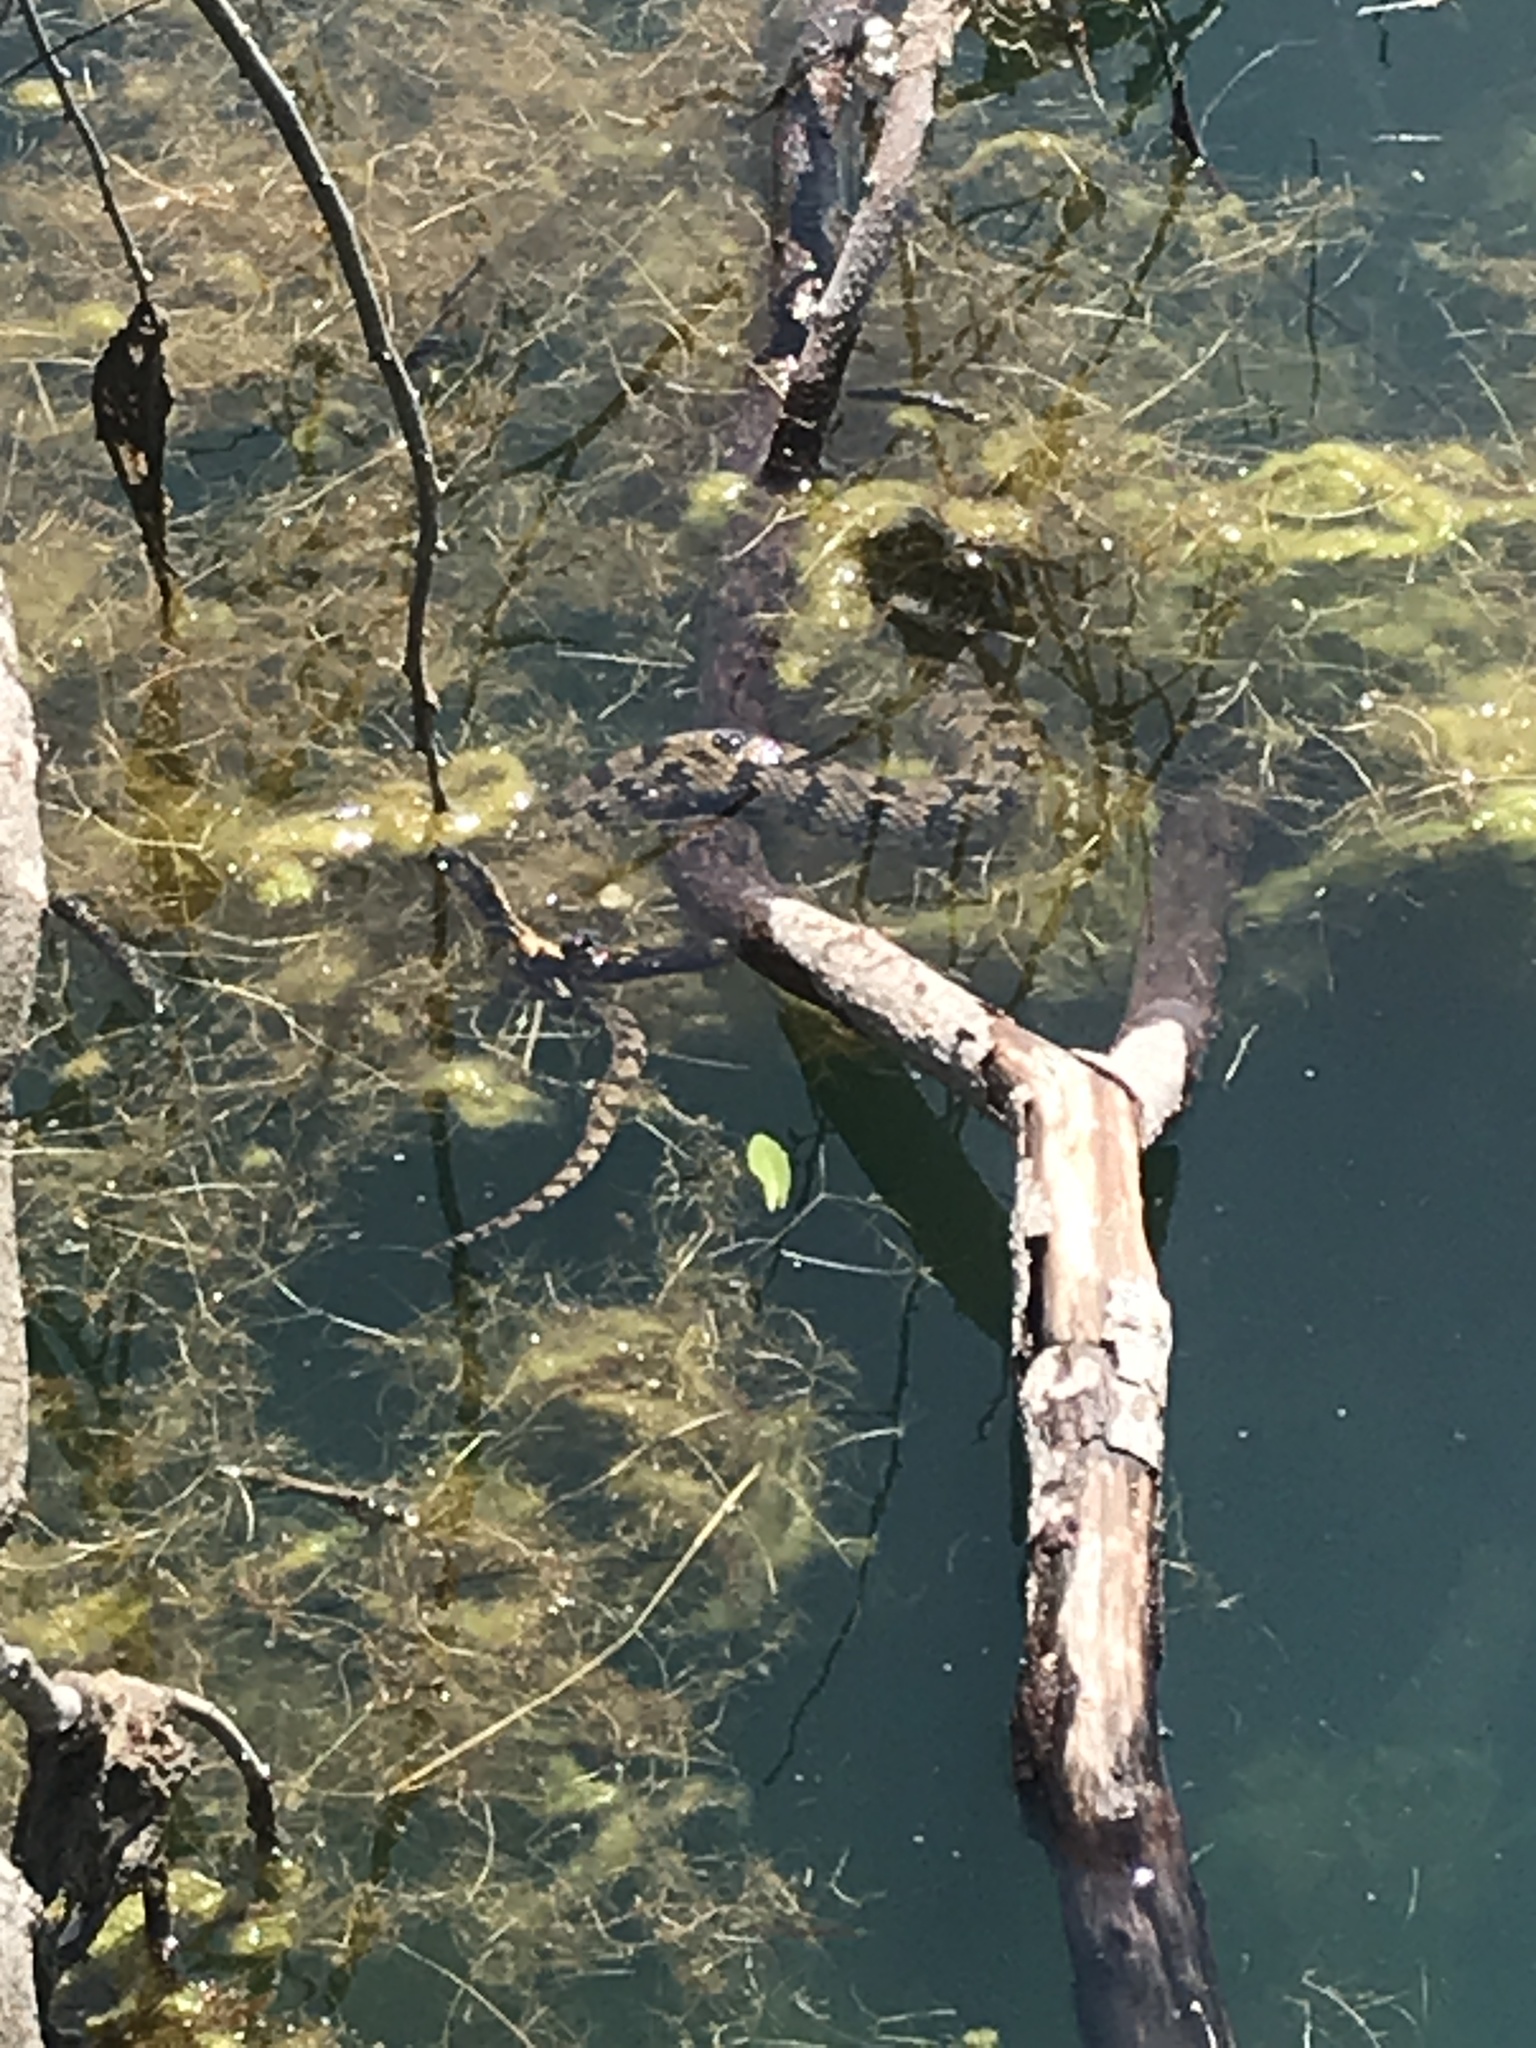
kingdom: Animalia
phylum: Chordata
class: Squamata
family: Colubridae
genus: Nerodia
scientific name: Nerodia rhombifer
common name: Diamondback water snake
